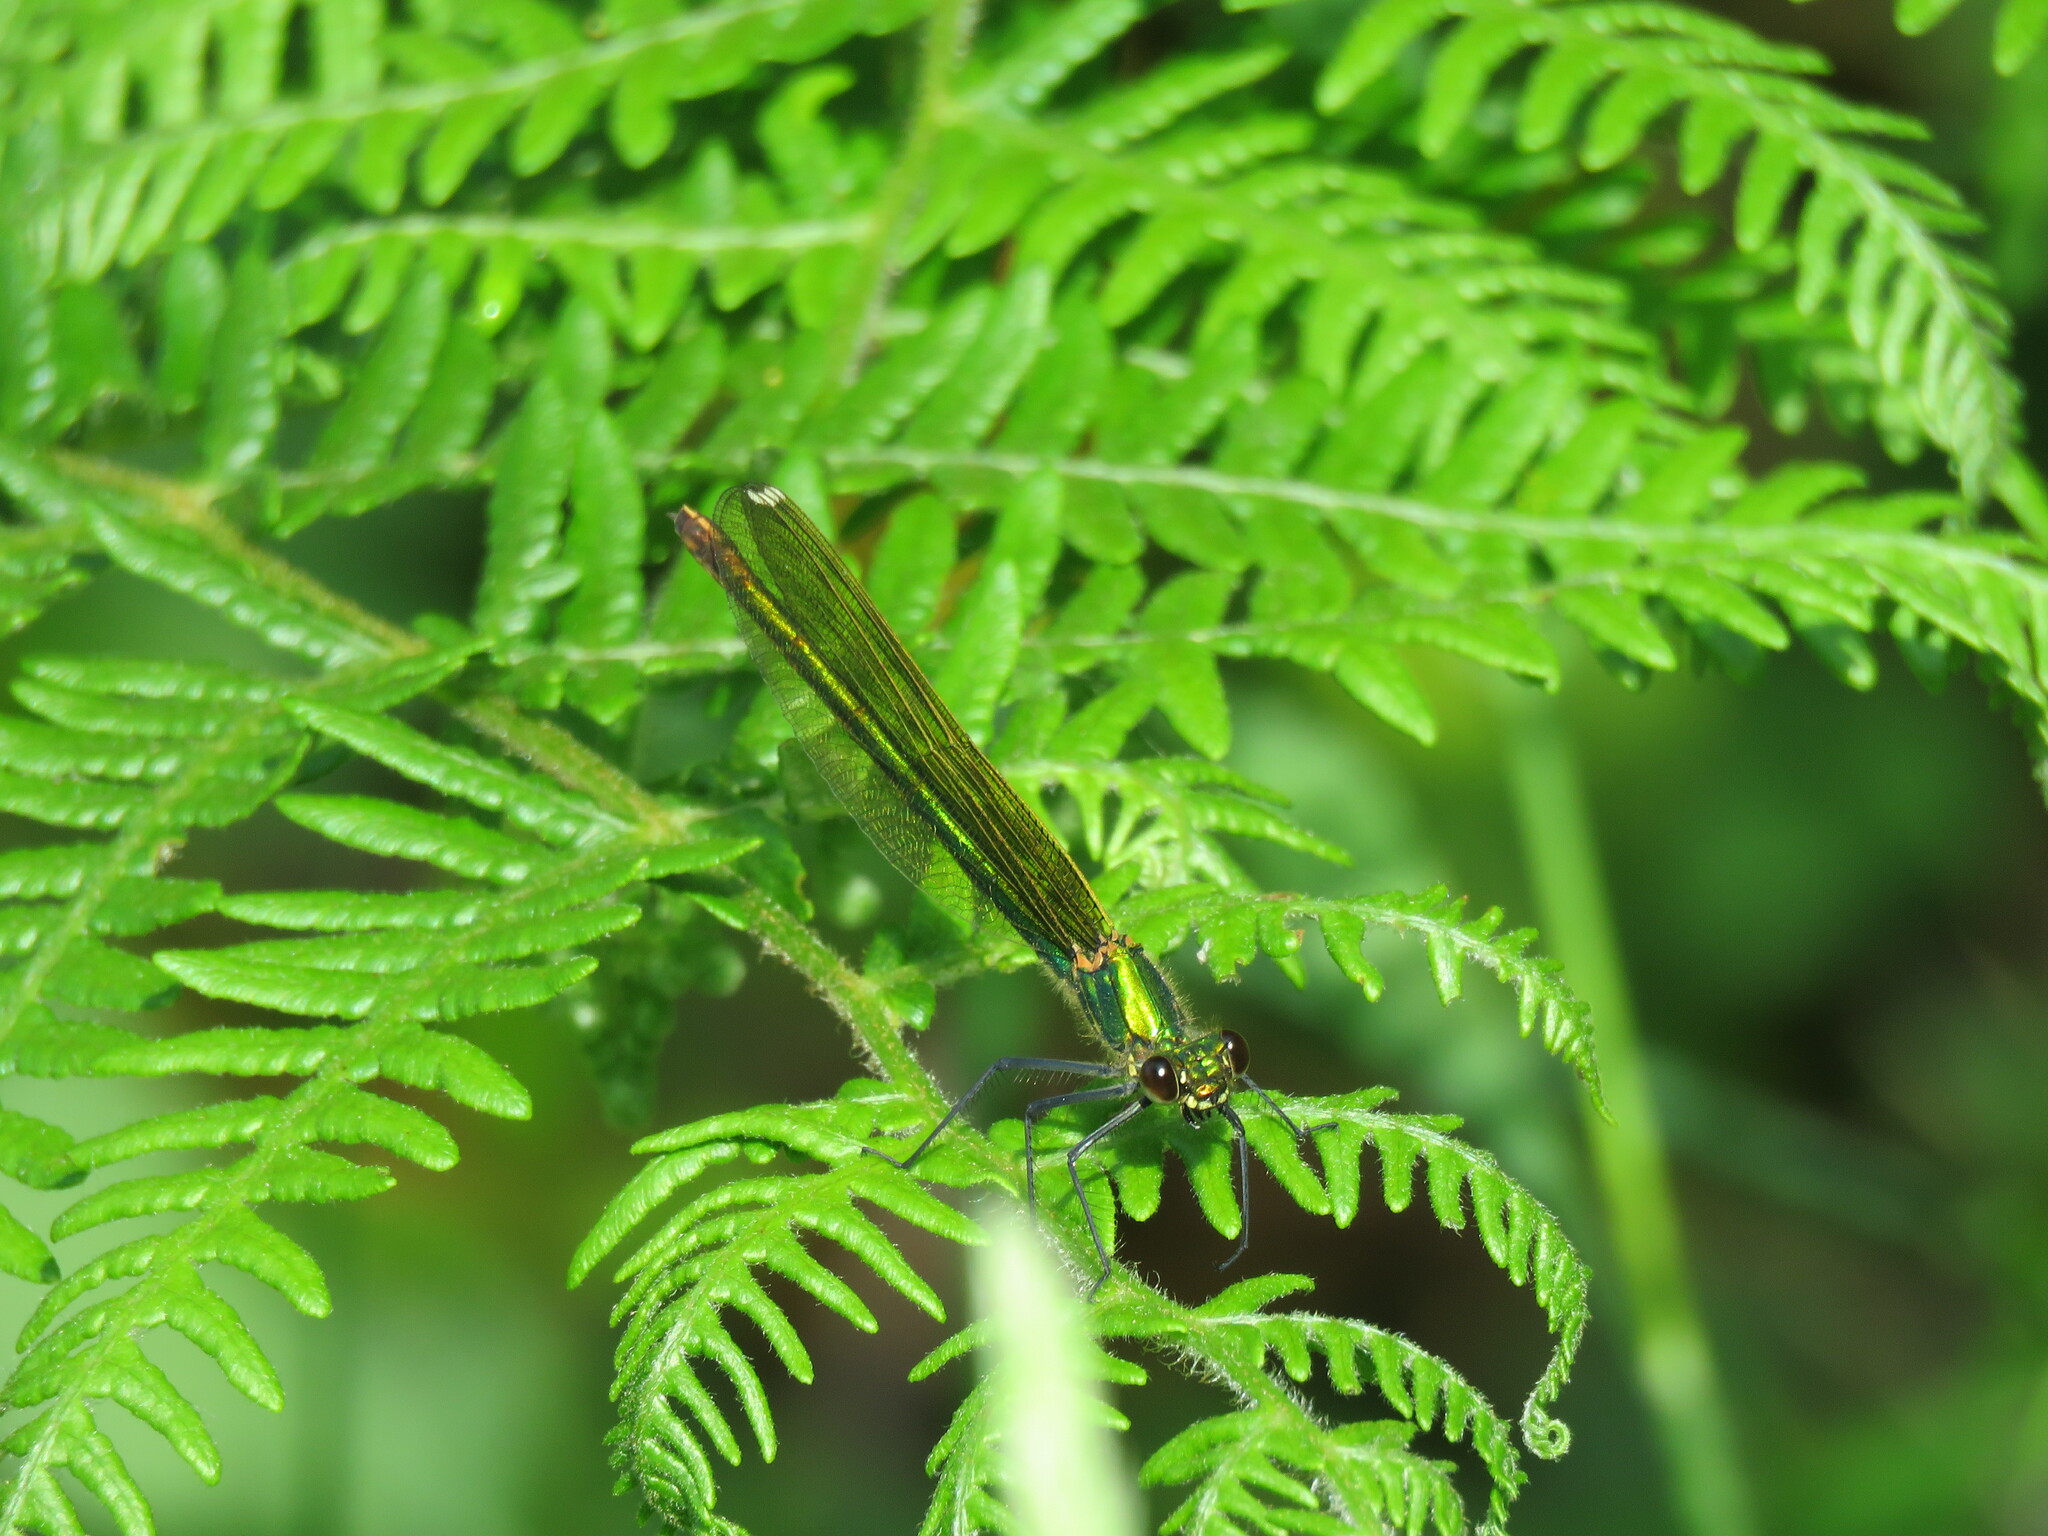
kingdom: Animalia
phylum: Arthropoda
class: Insecta
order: Odonata
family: Calopterygidae
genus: Calopteryx
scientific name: Calopteryx xanthostoma
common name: Western demoiselle
